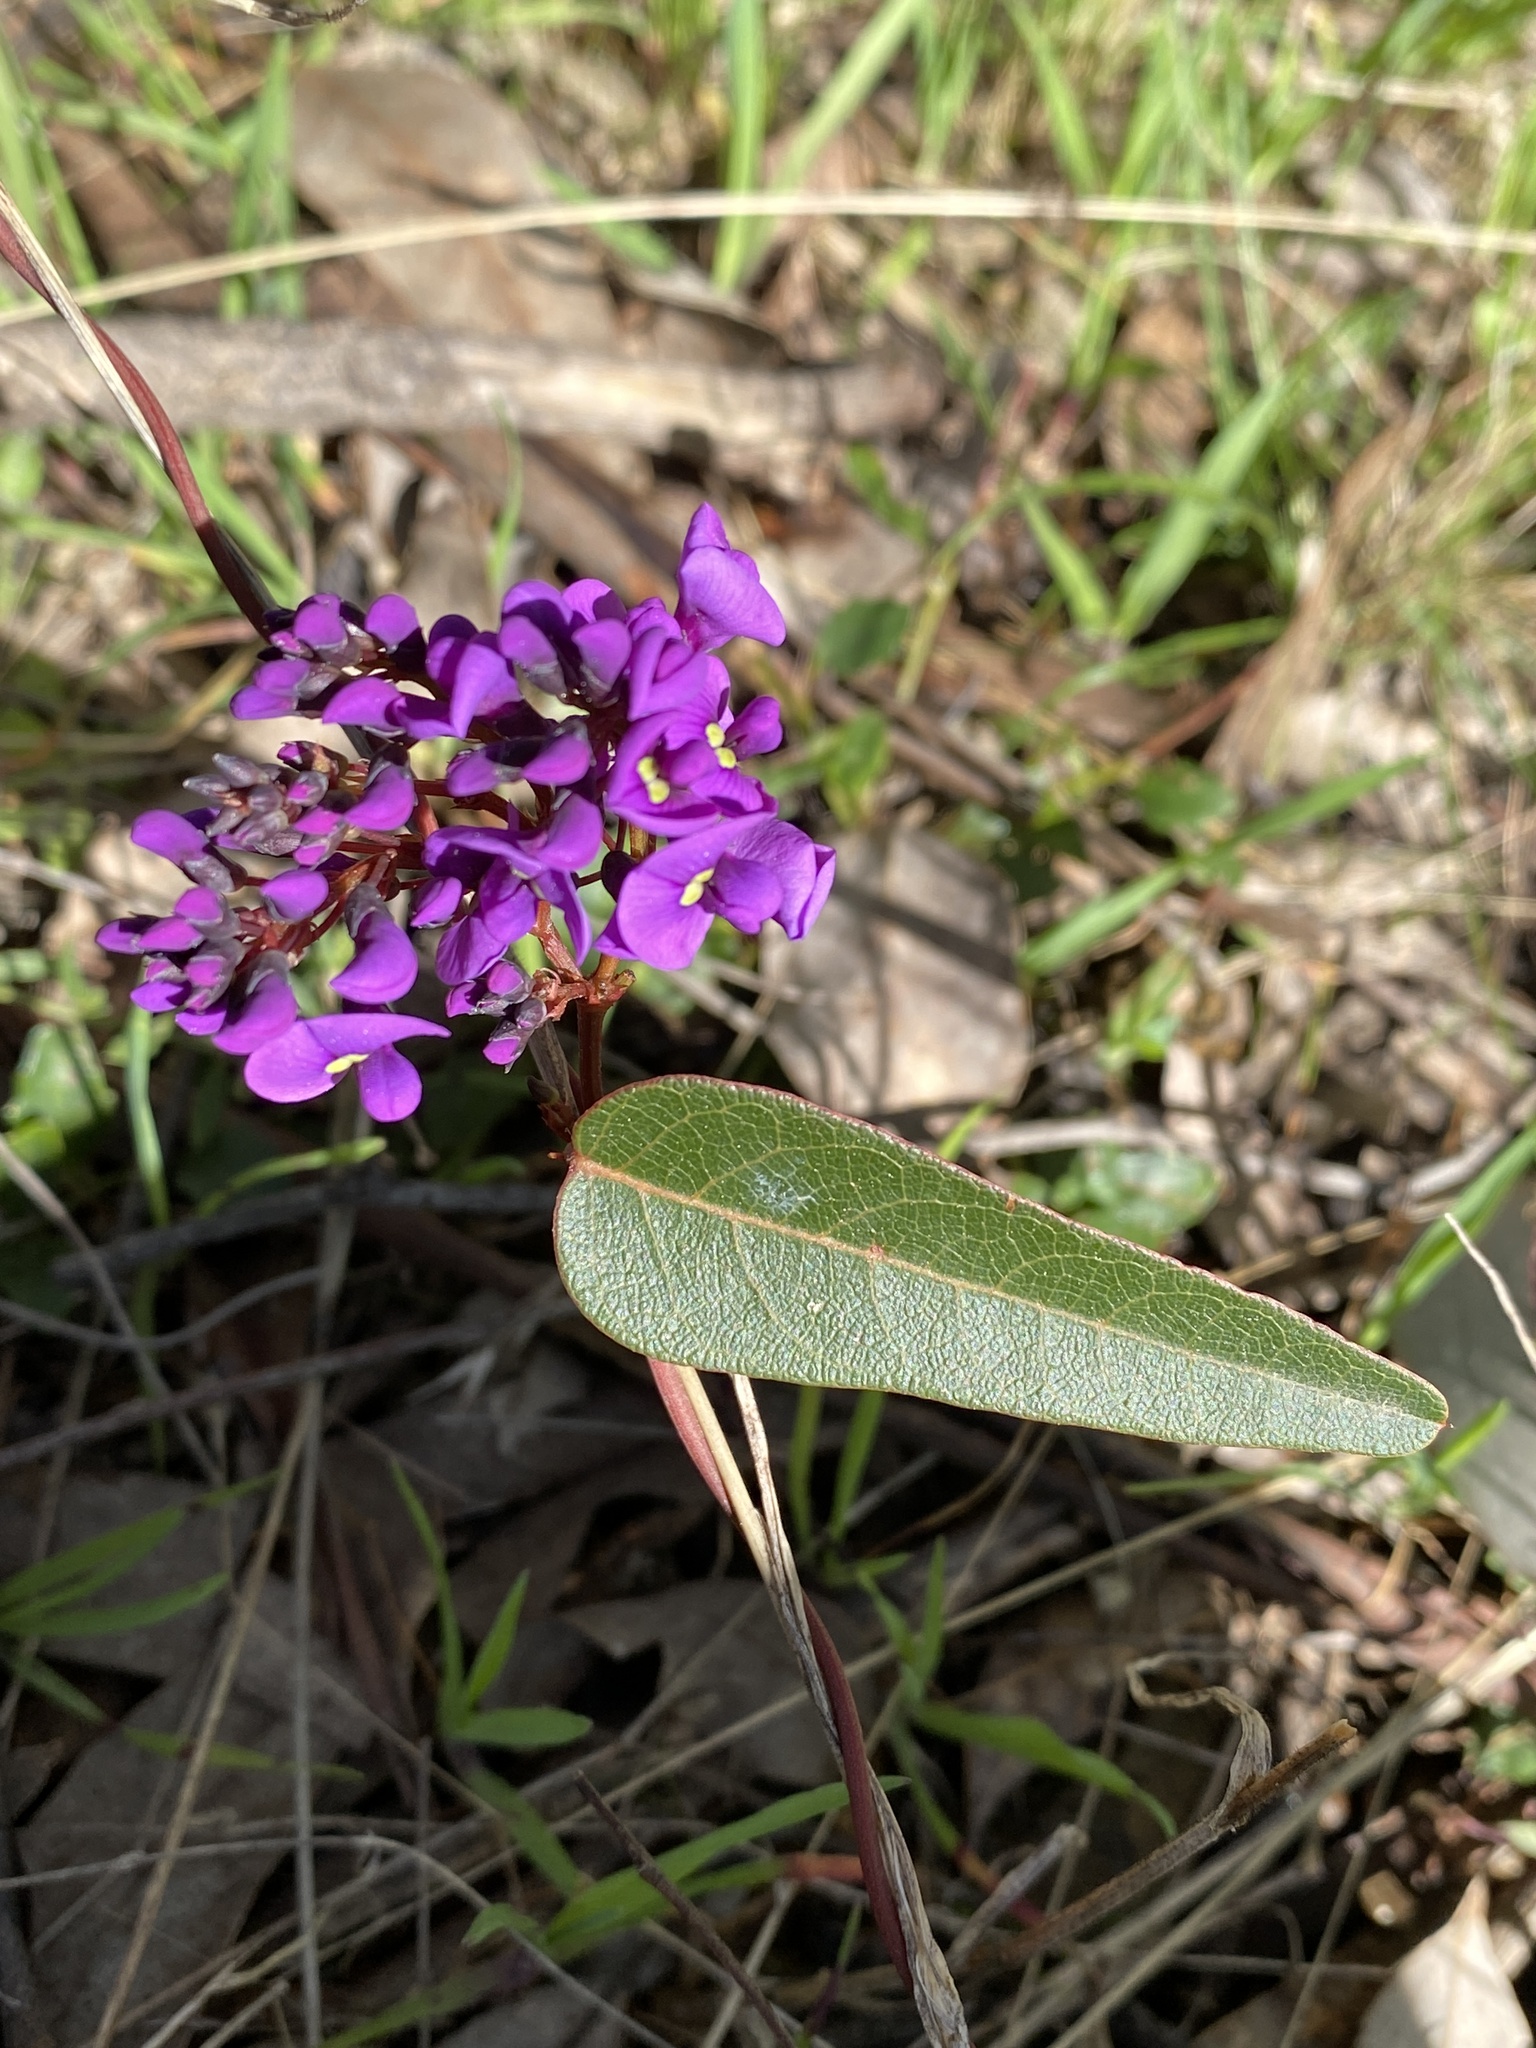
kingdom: Plantae
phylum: Tracheophyta
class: Magnoliopsida
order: Fabales
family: Fabaceae
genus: Hardenbergia
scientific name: Hardenbergia violacea
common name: Coral-pea
